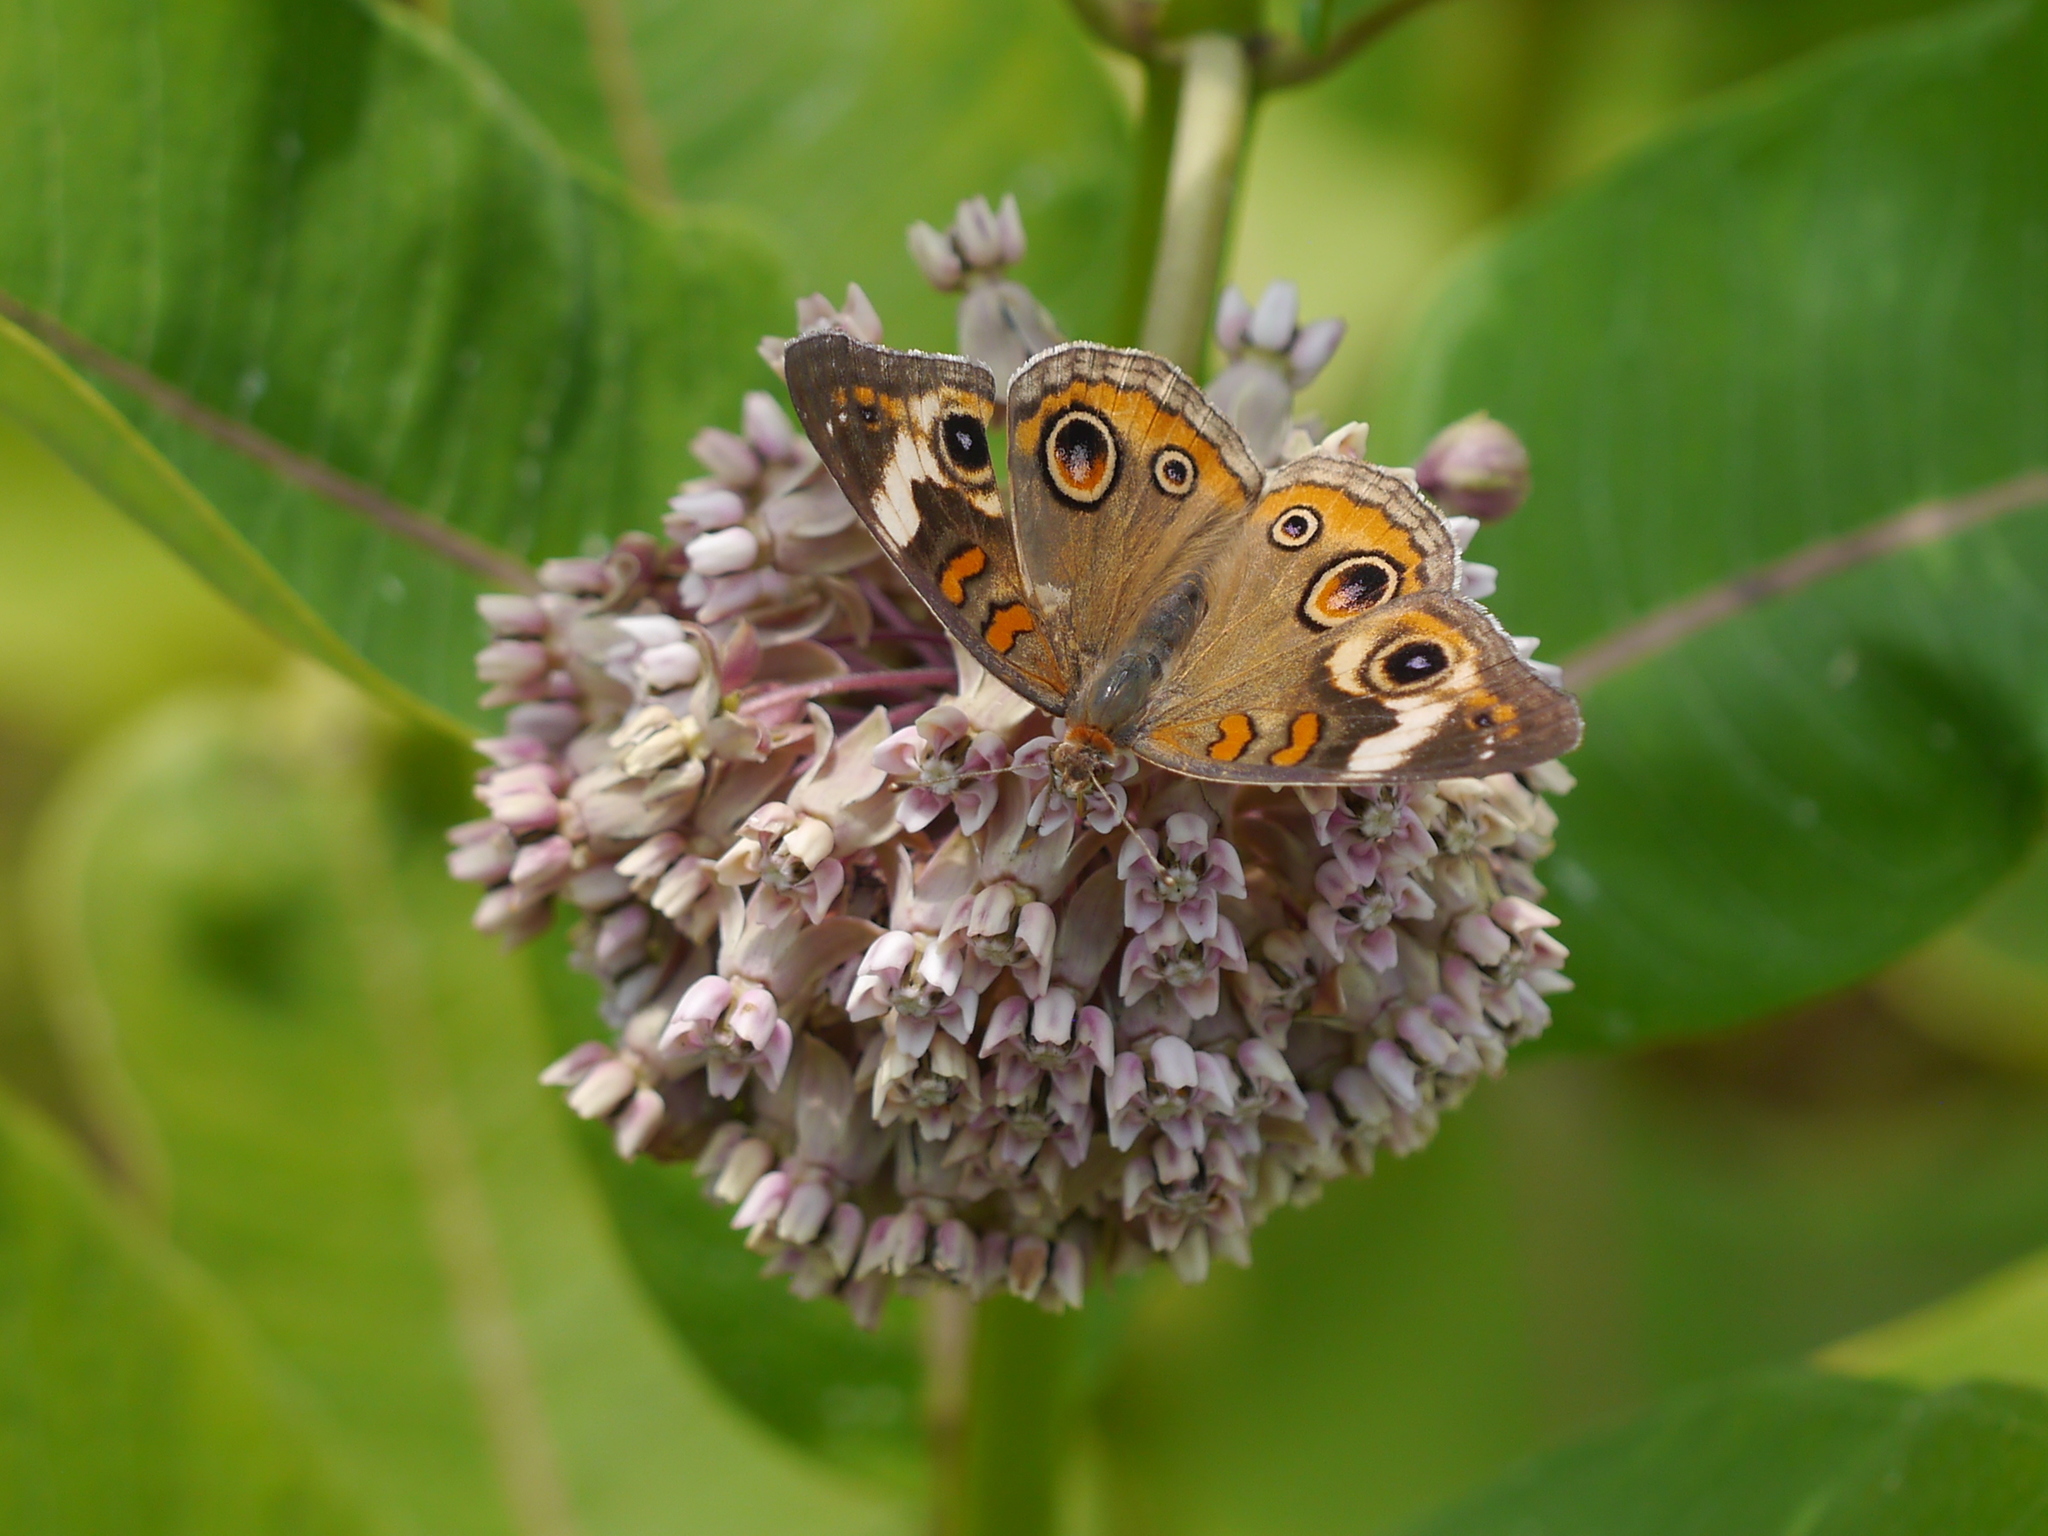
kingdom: Animalia
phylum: Arthropoda
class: Insecta
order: Lepidoptera
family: Nymphalidae
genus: Junonia
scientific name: Junonia coenia
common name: Common buckeye
